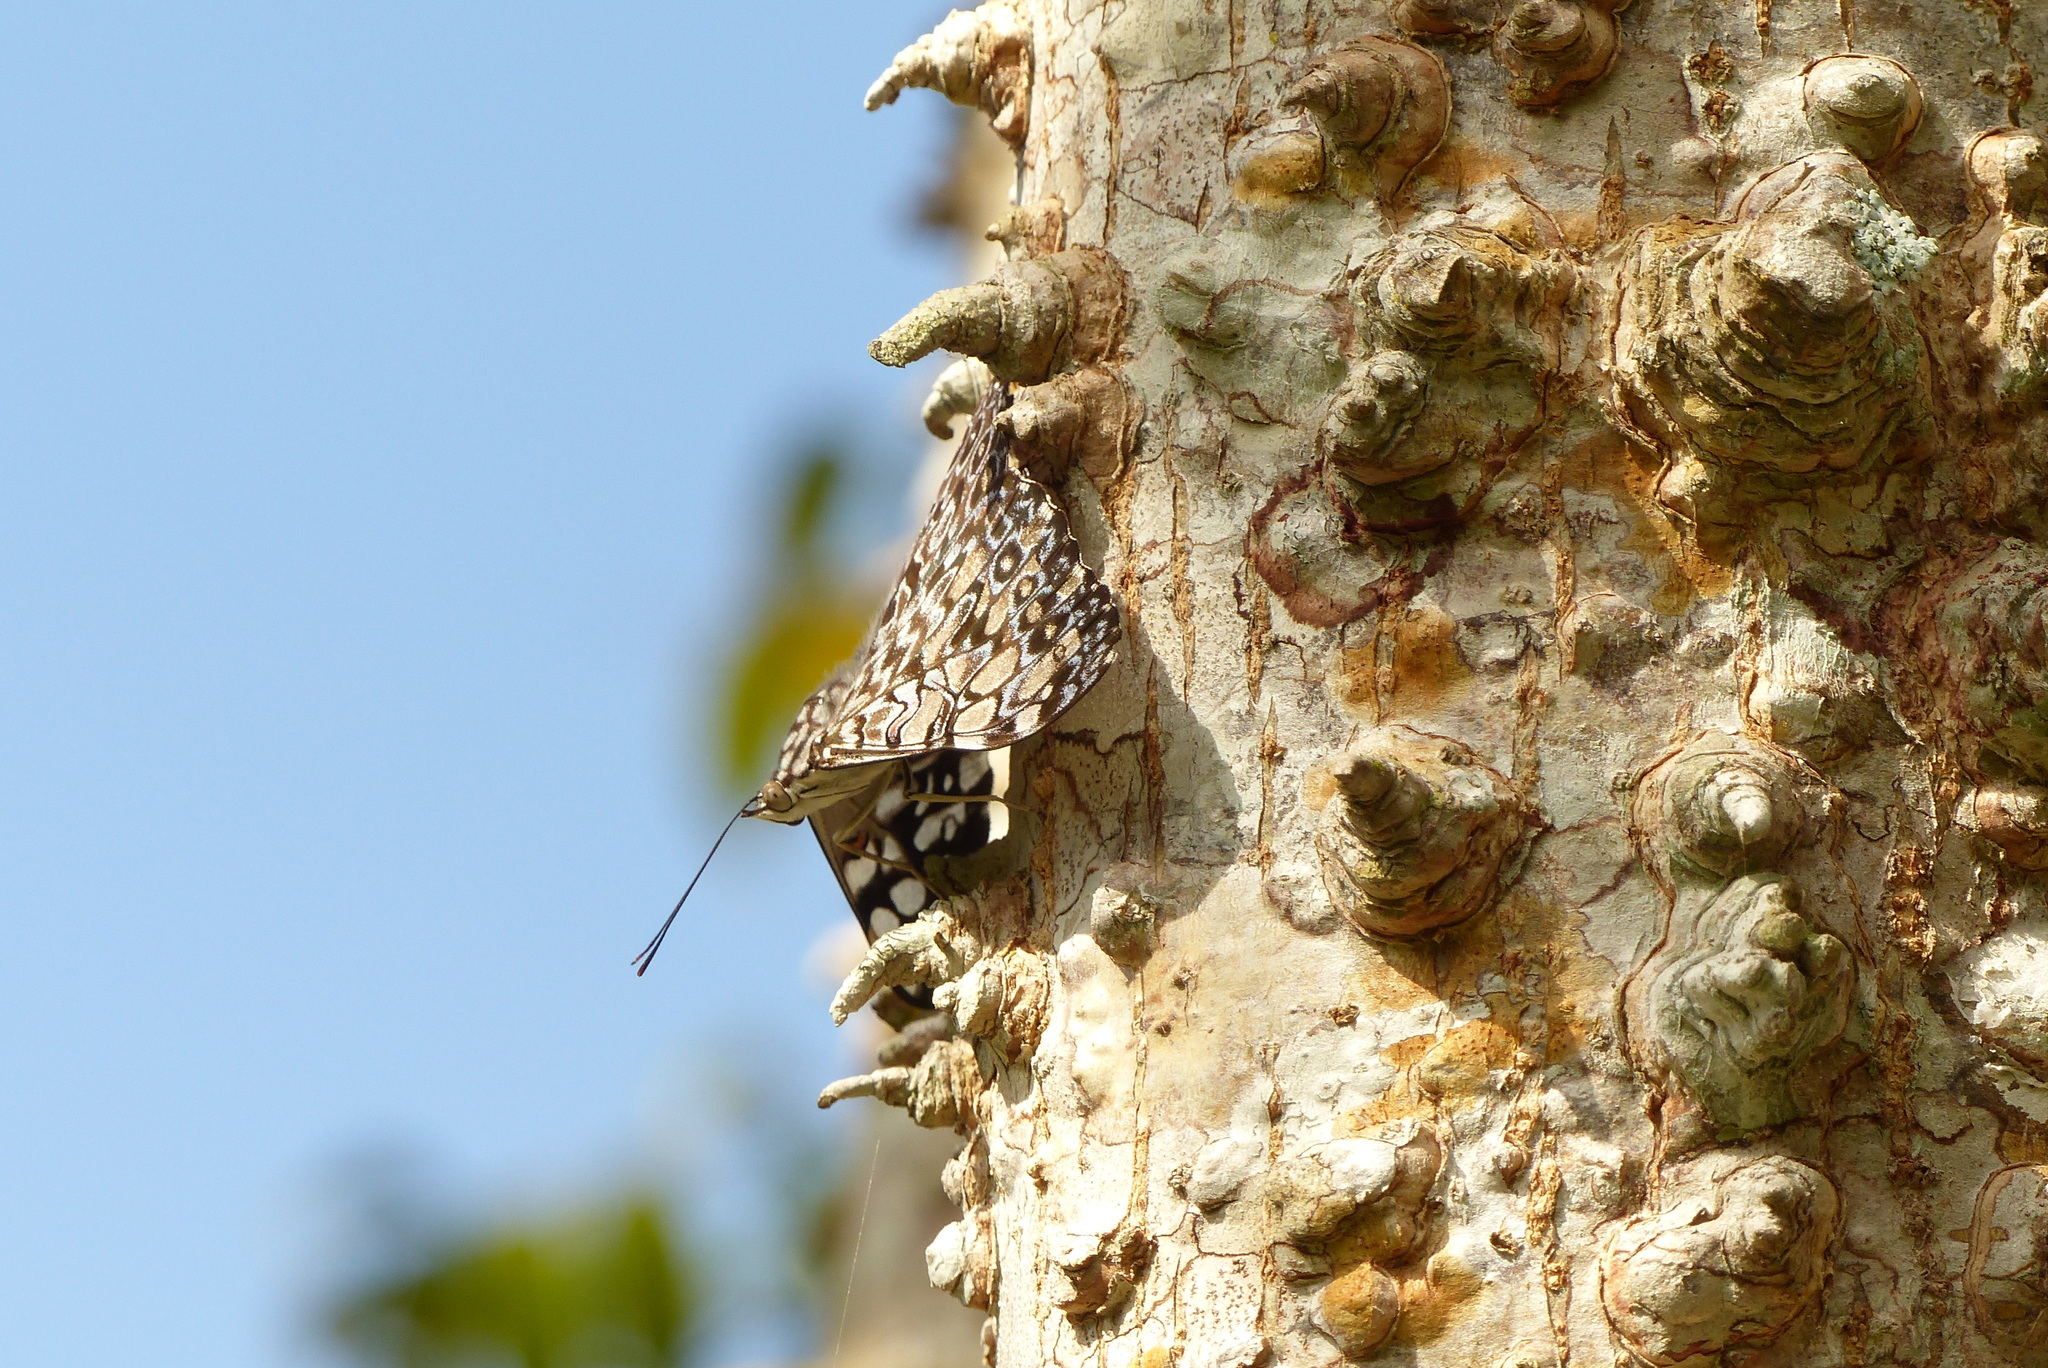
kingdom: Animalia
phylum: Arthropoda
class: Insecta
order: Lepidoptera
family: Nymphalidae
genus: Hamadryas
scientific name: Hamadryas feronia
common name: Variable cracker
